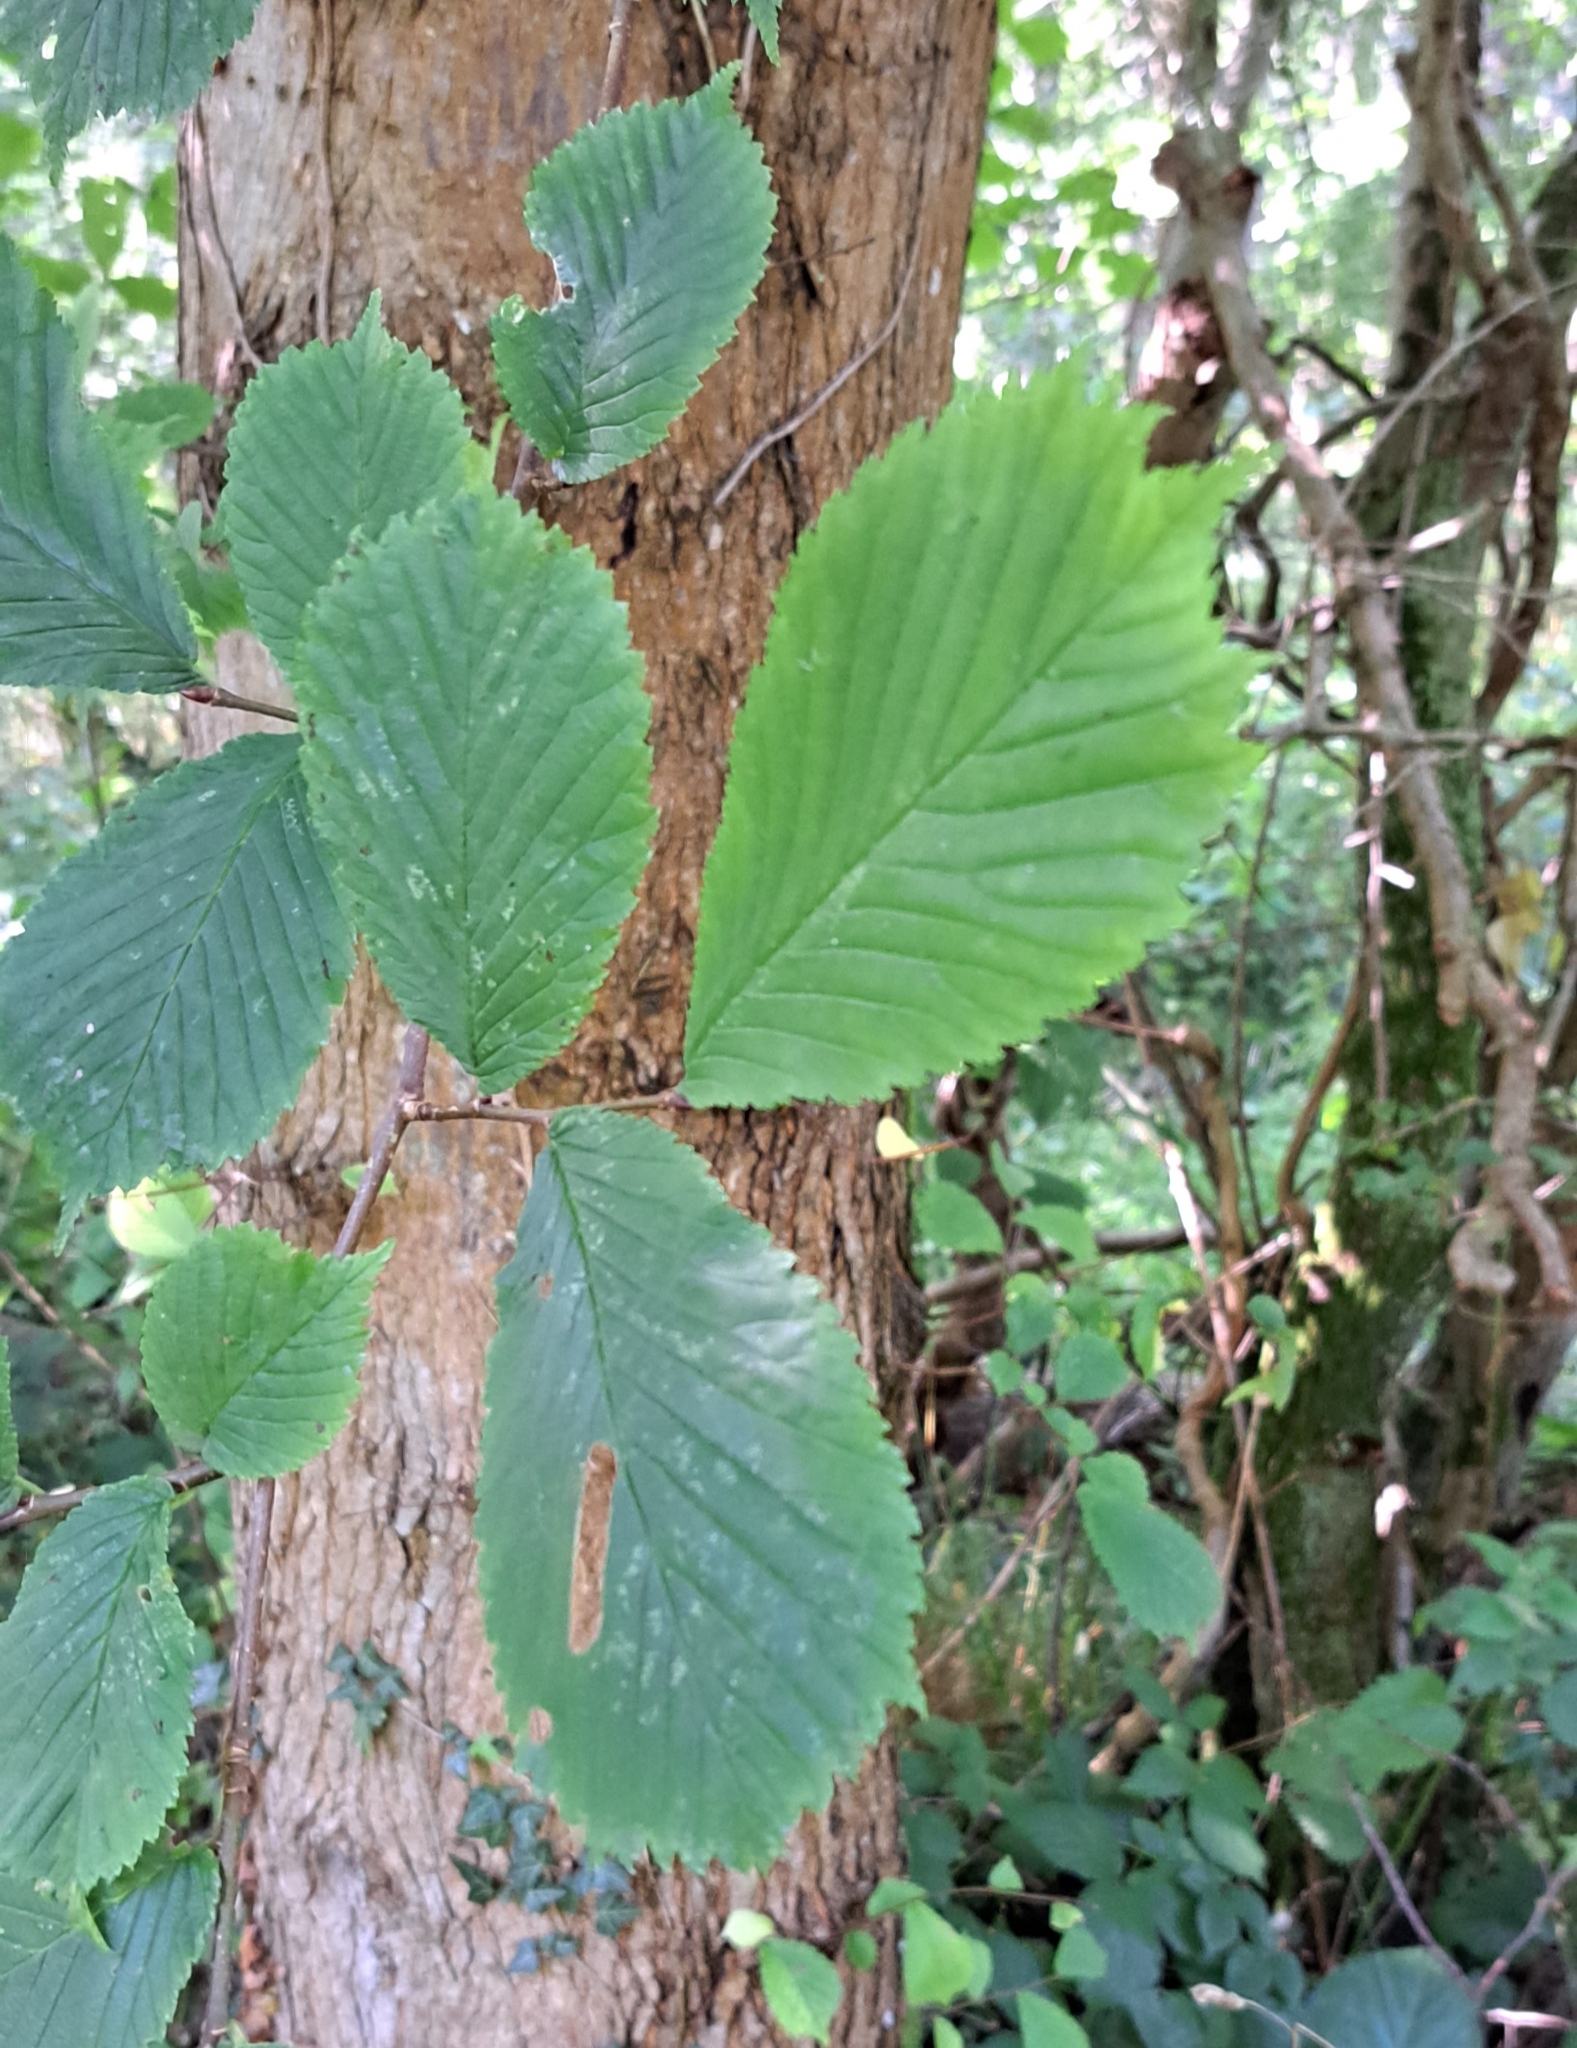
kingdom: Plantae
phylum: Tracheophyta
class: Magnoliopsida
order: Rosales
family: Ulmaceae
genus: Ulmus
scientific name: Ulmus glabra
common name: Wych elm
